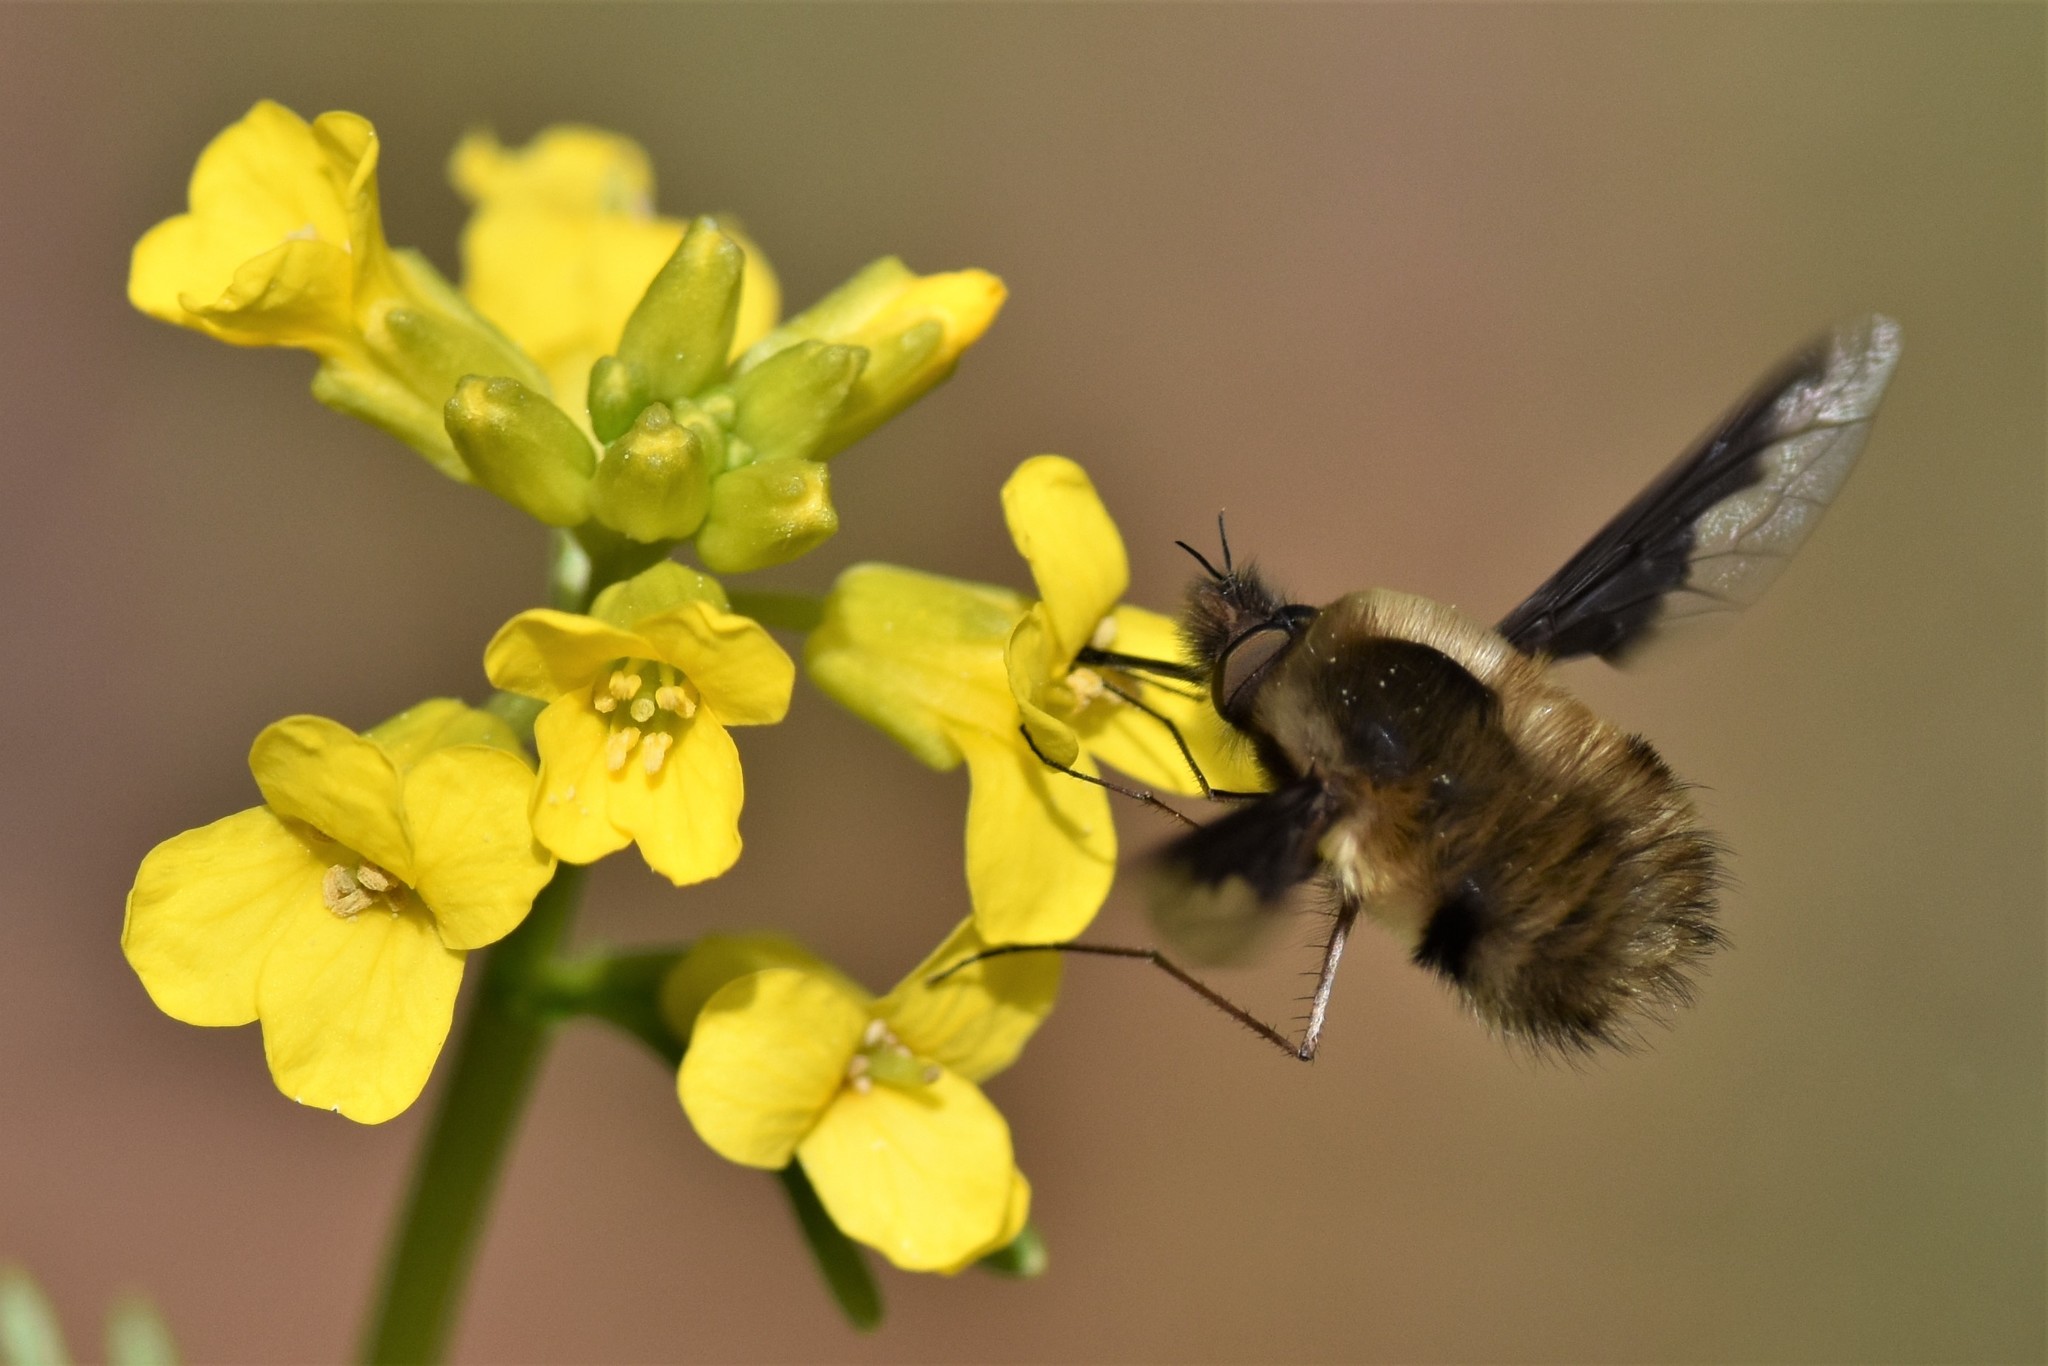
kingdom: Animalia
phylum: Arthropoda
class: Insecta
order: Diptera
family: Bombyliidae
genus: Bombylius
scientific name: Bombylius major
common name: Bee fly
